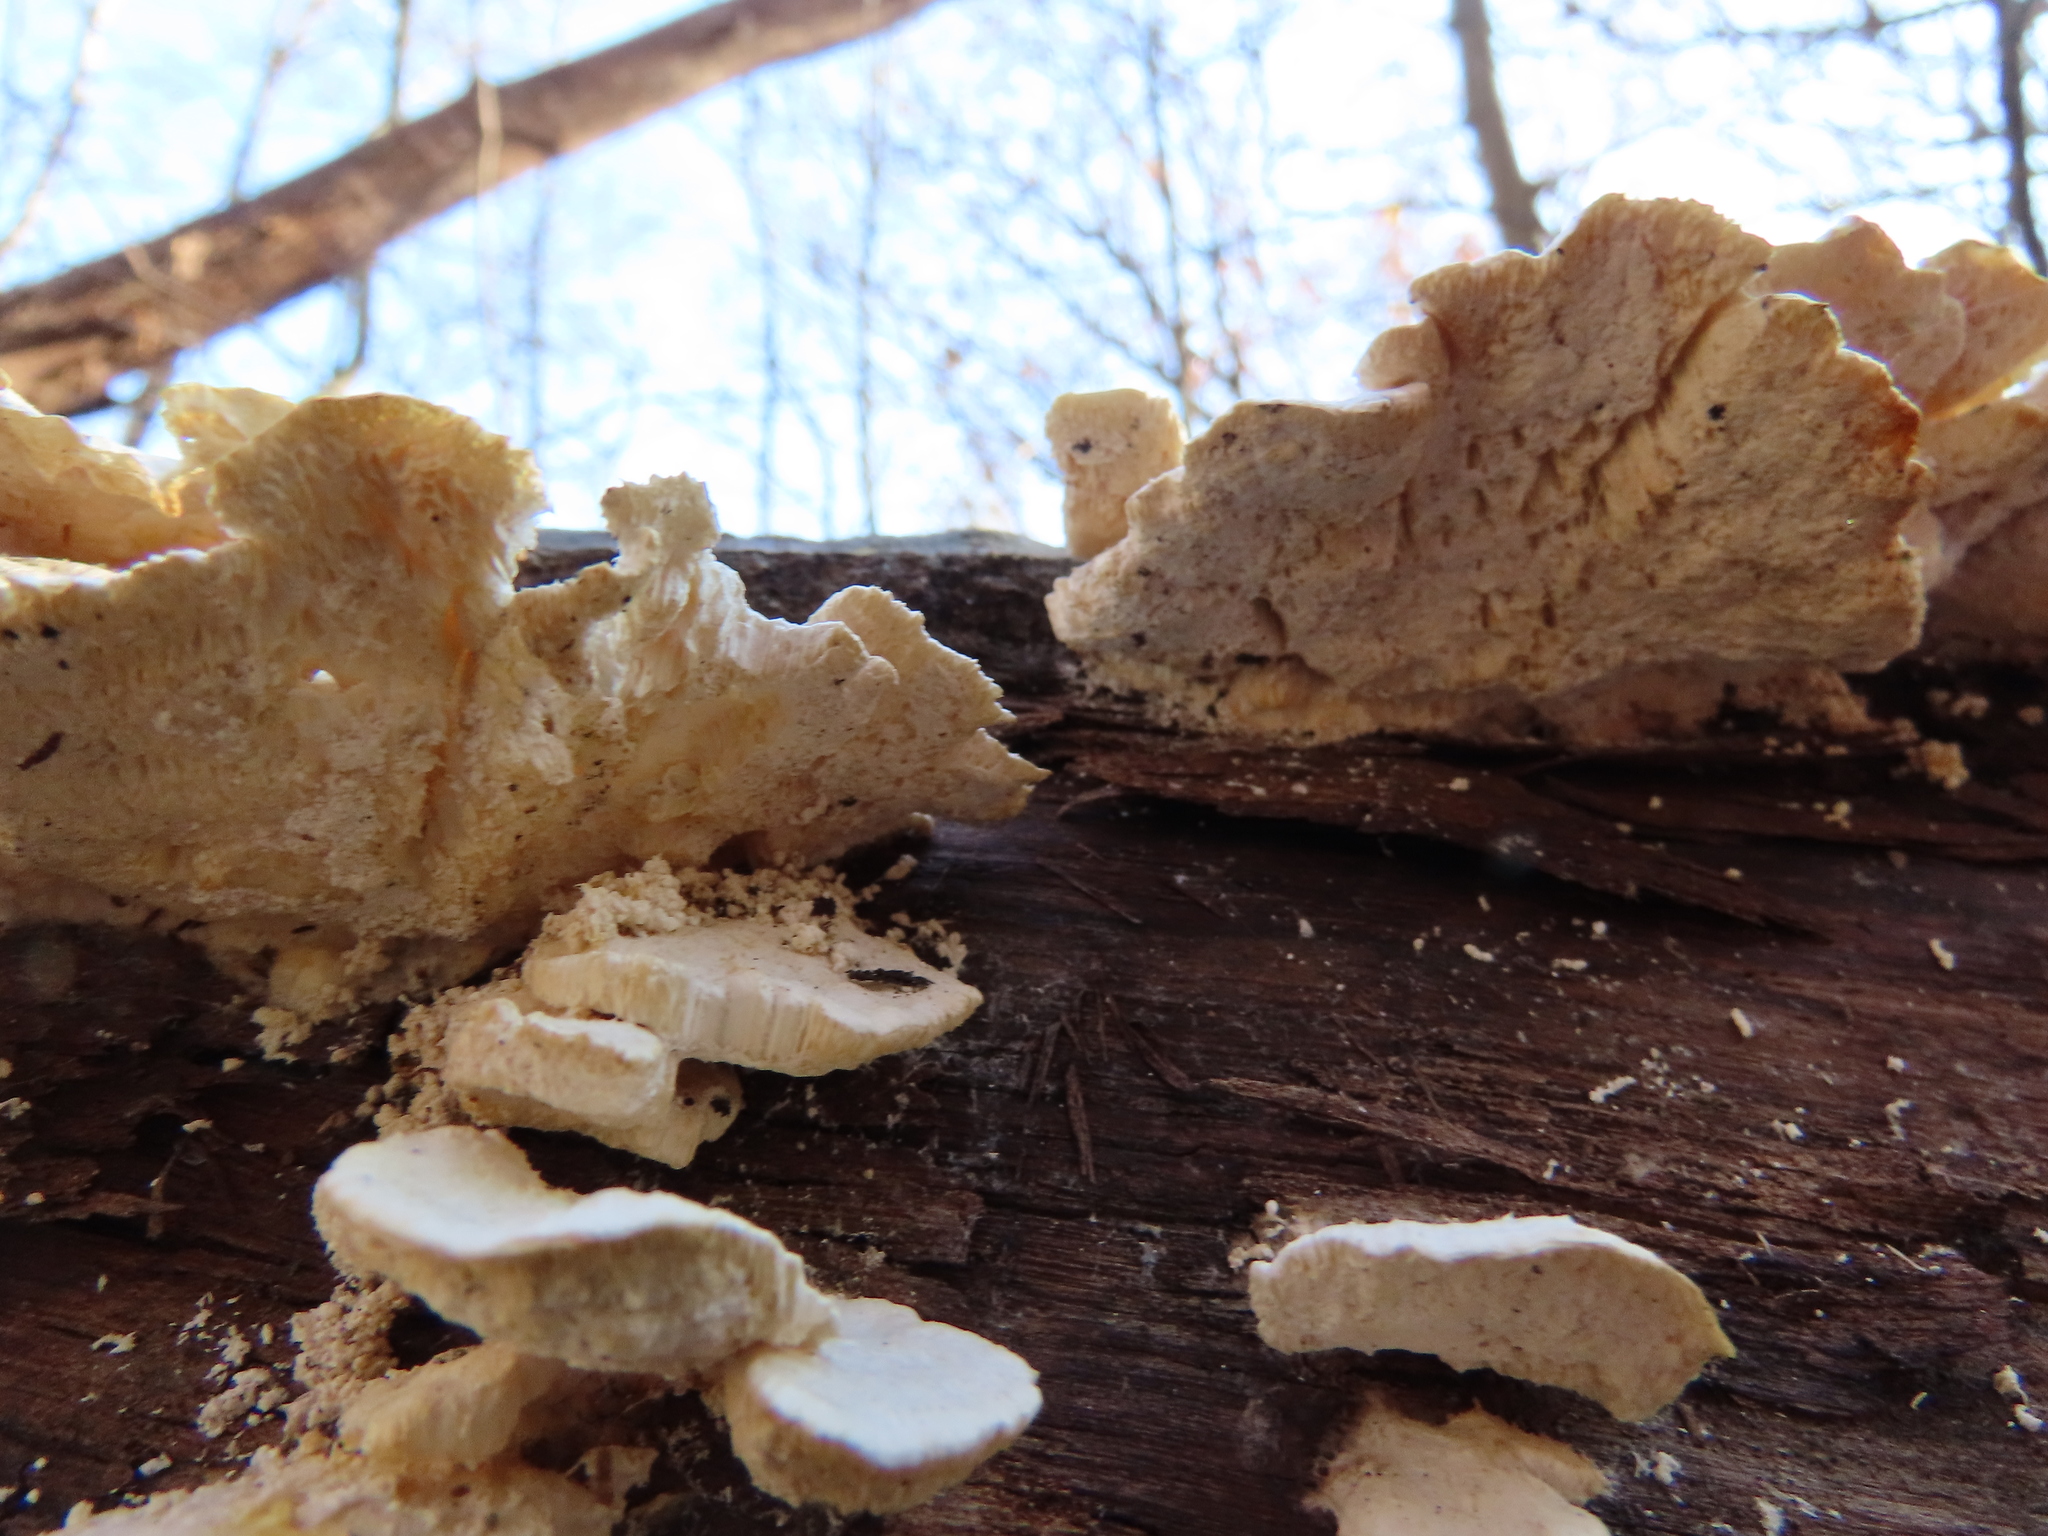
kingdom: Fungi
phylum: Basidiomycota
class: Agaricomycetes
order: Polyporales
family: Polyporaceae
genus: Trametes
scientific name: Trametes pubescens
